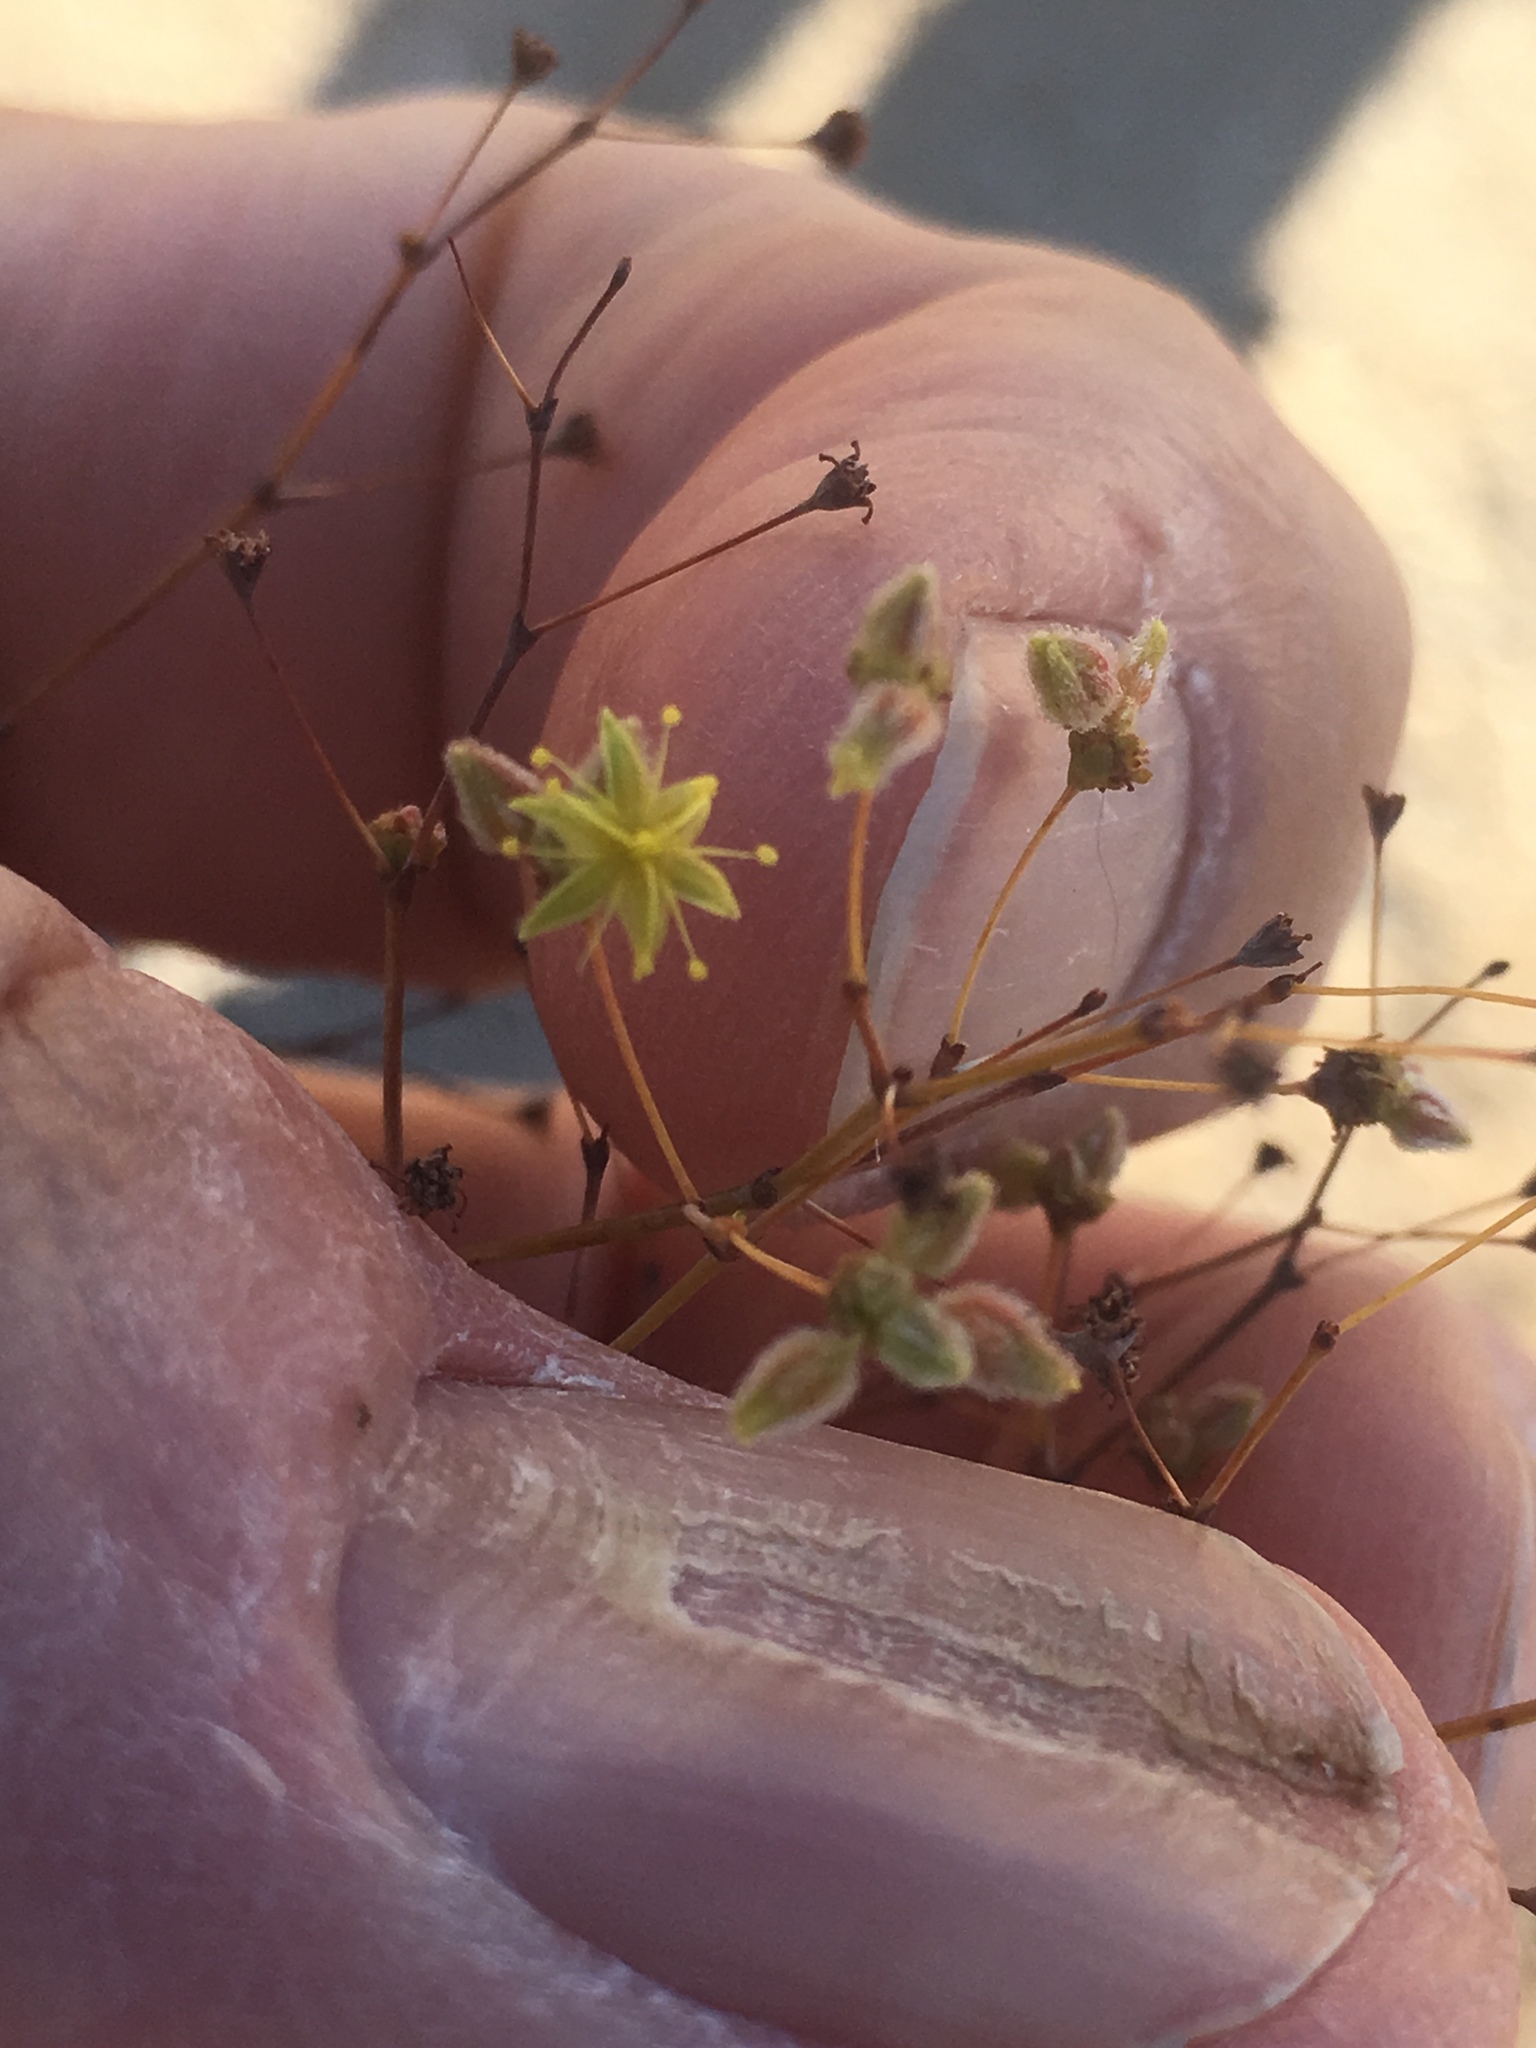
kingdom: Plantae
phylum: Tracheophyta
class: Magnoliopsida
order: Caryophyllales
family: Polygonaceae
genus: Eriogonum
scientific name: Eriogonum inflatum
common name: Desert trumpet
